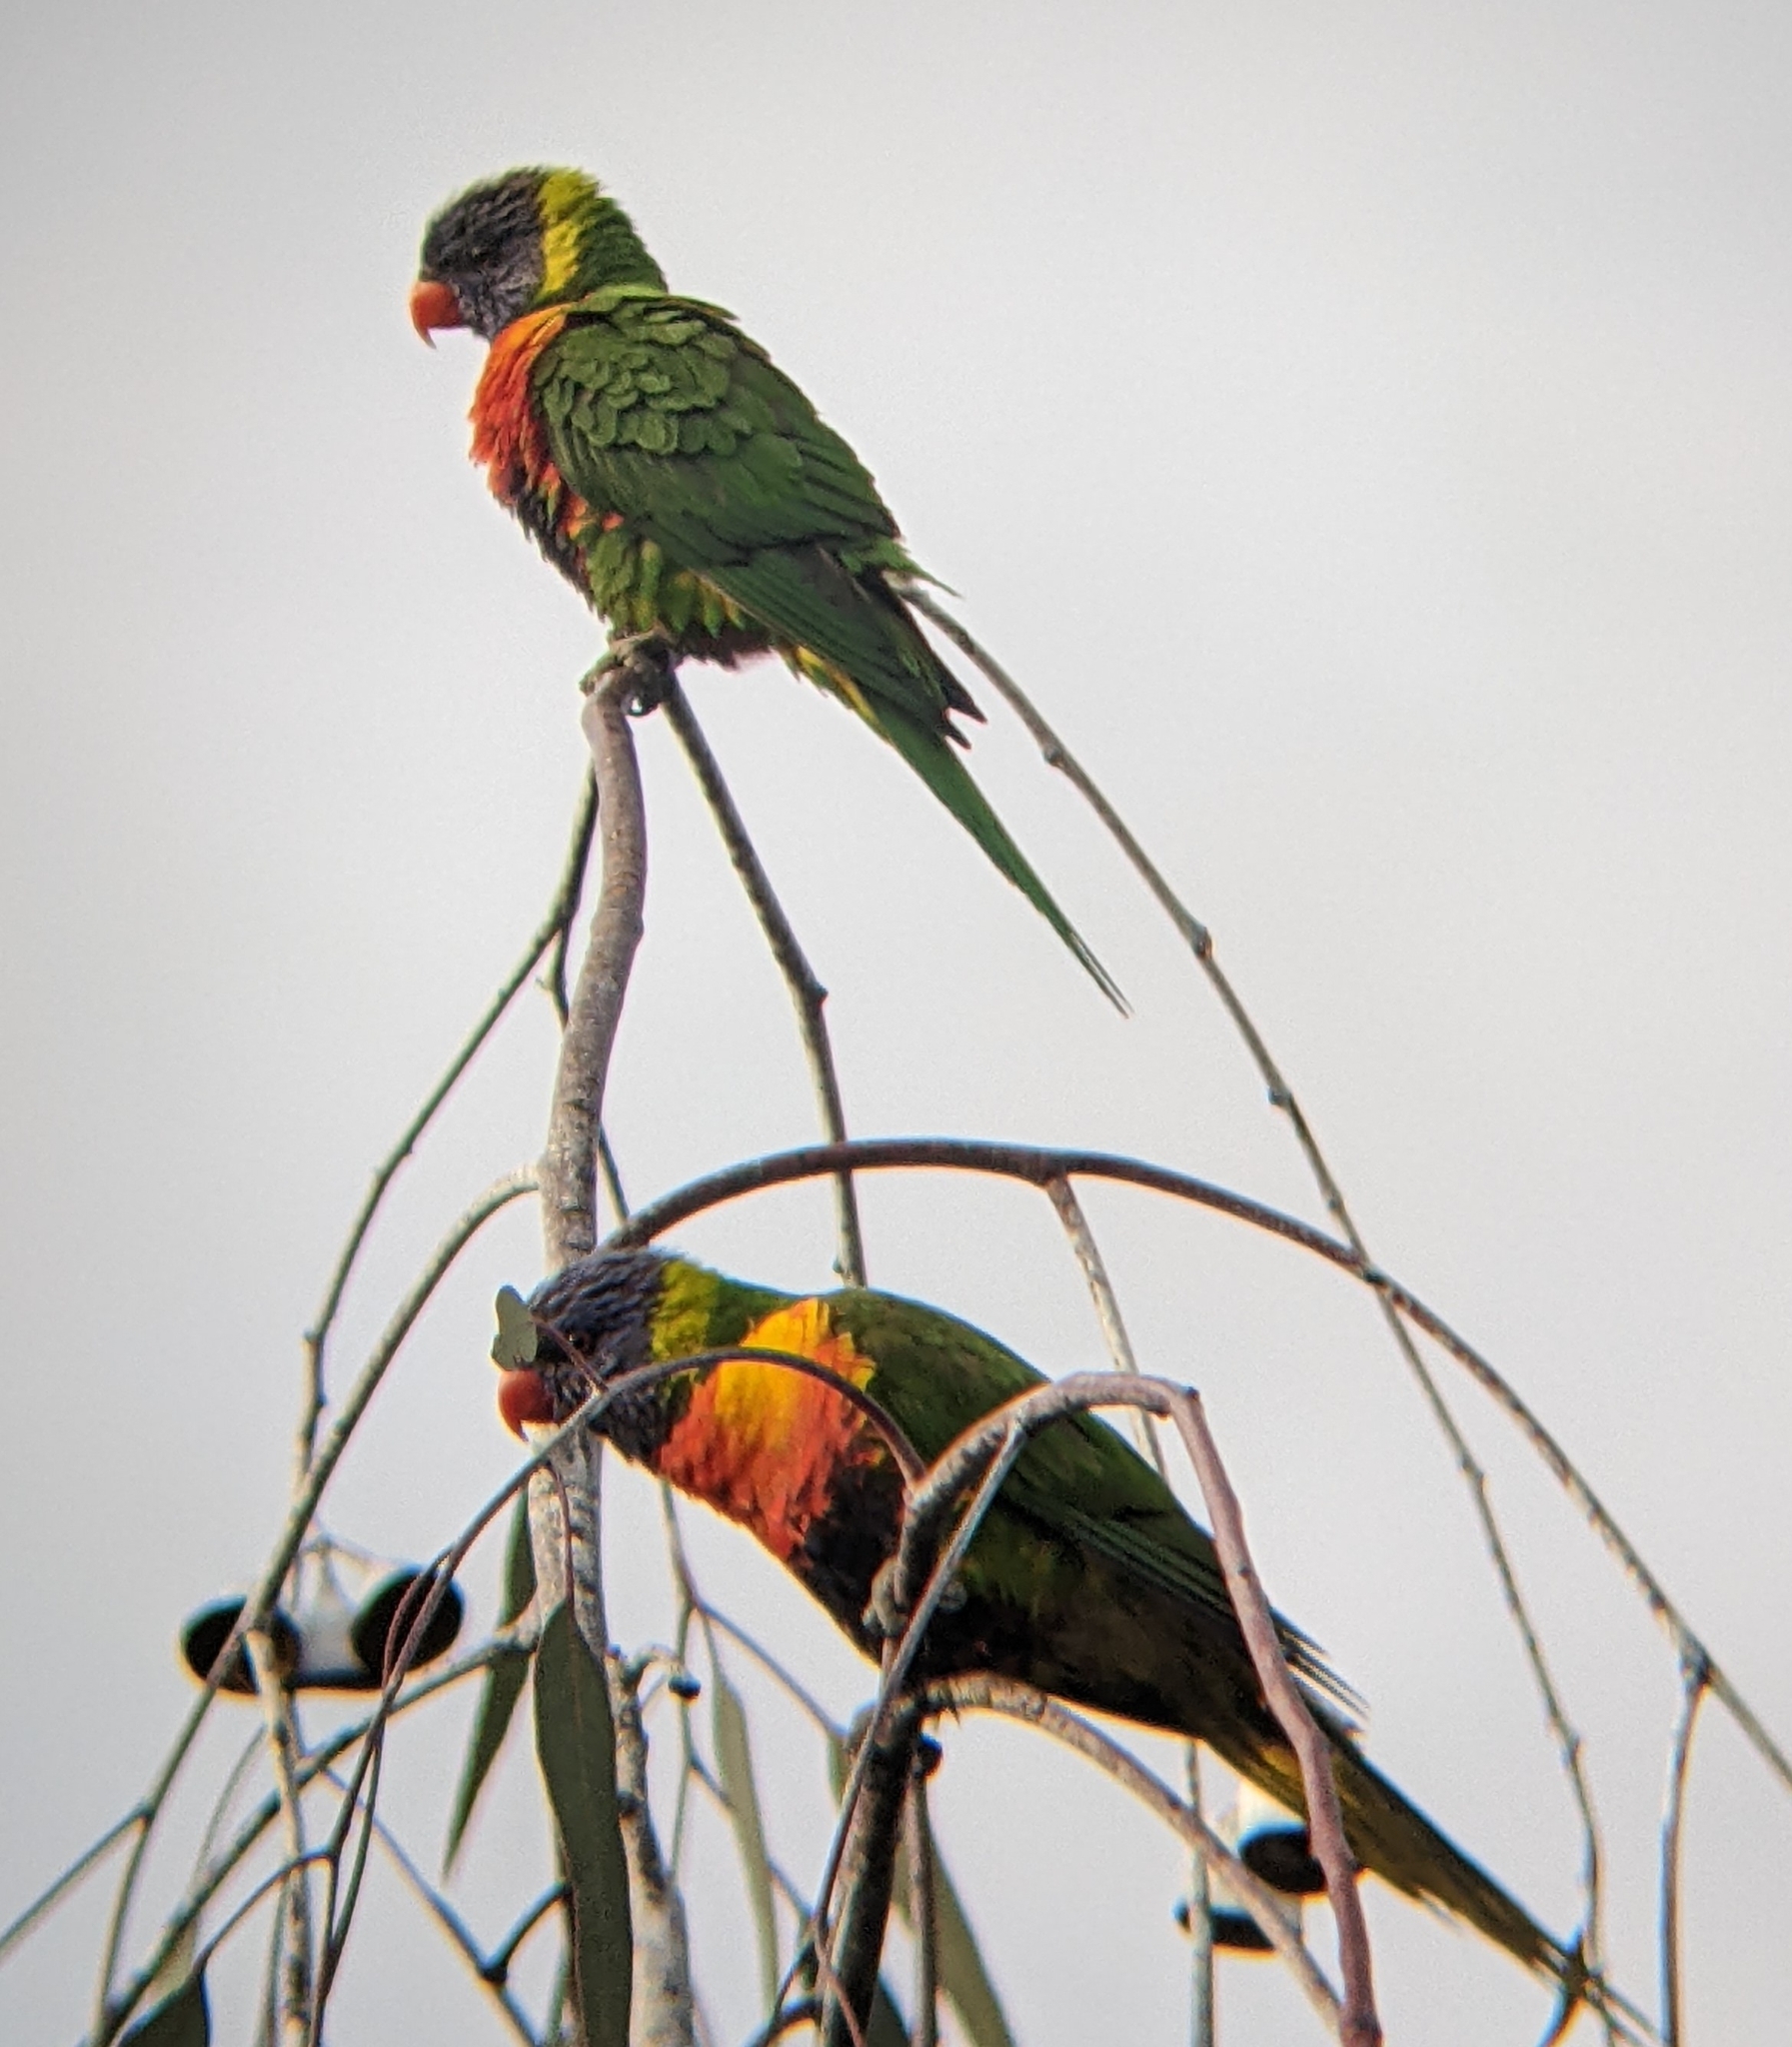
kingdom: Animalia
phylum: Chordata
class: Aves
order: Psittaciformes
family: Psittacidae
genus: Trichoglossus
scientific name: Trichoglossus haematodus
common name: Coconut lorikeet
